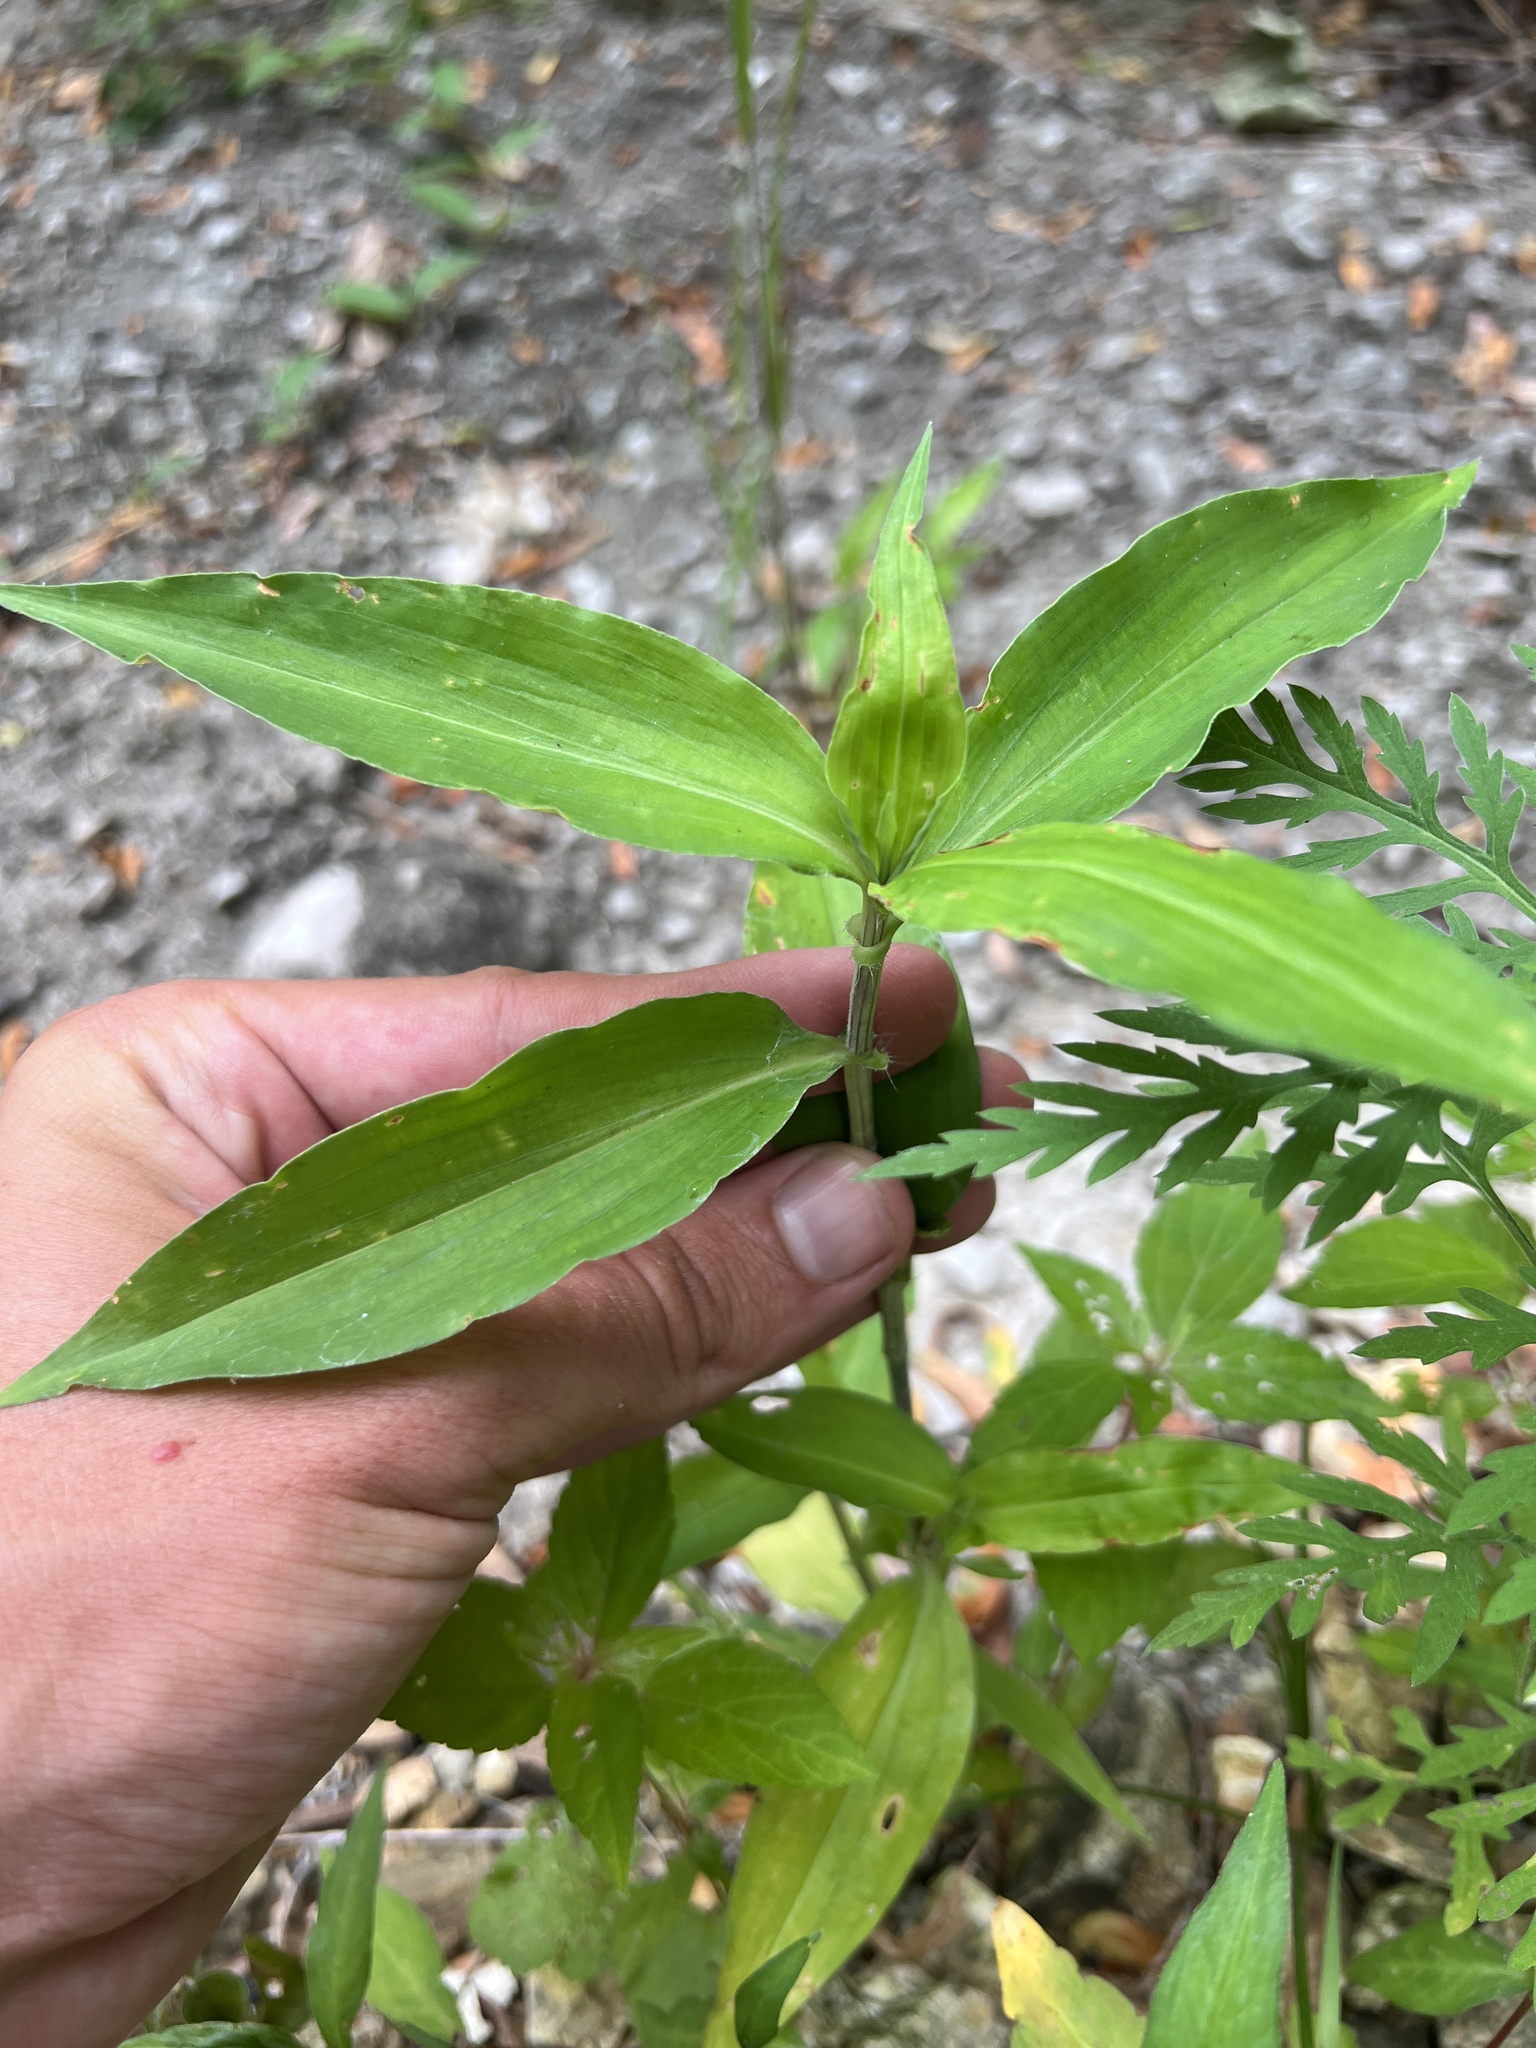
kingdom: Plantae
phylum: Tracheophyta
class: Liliopsida
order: Commelinales
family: Commelinaceae
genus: Commelina
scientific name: Commelina erecta
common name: Blousel blommetjie
